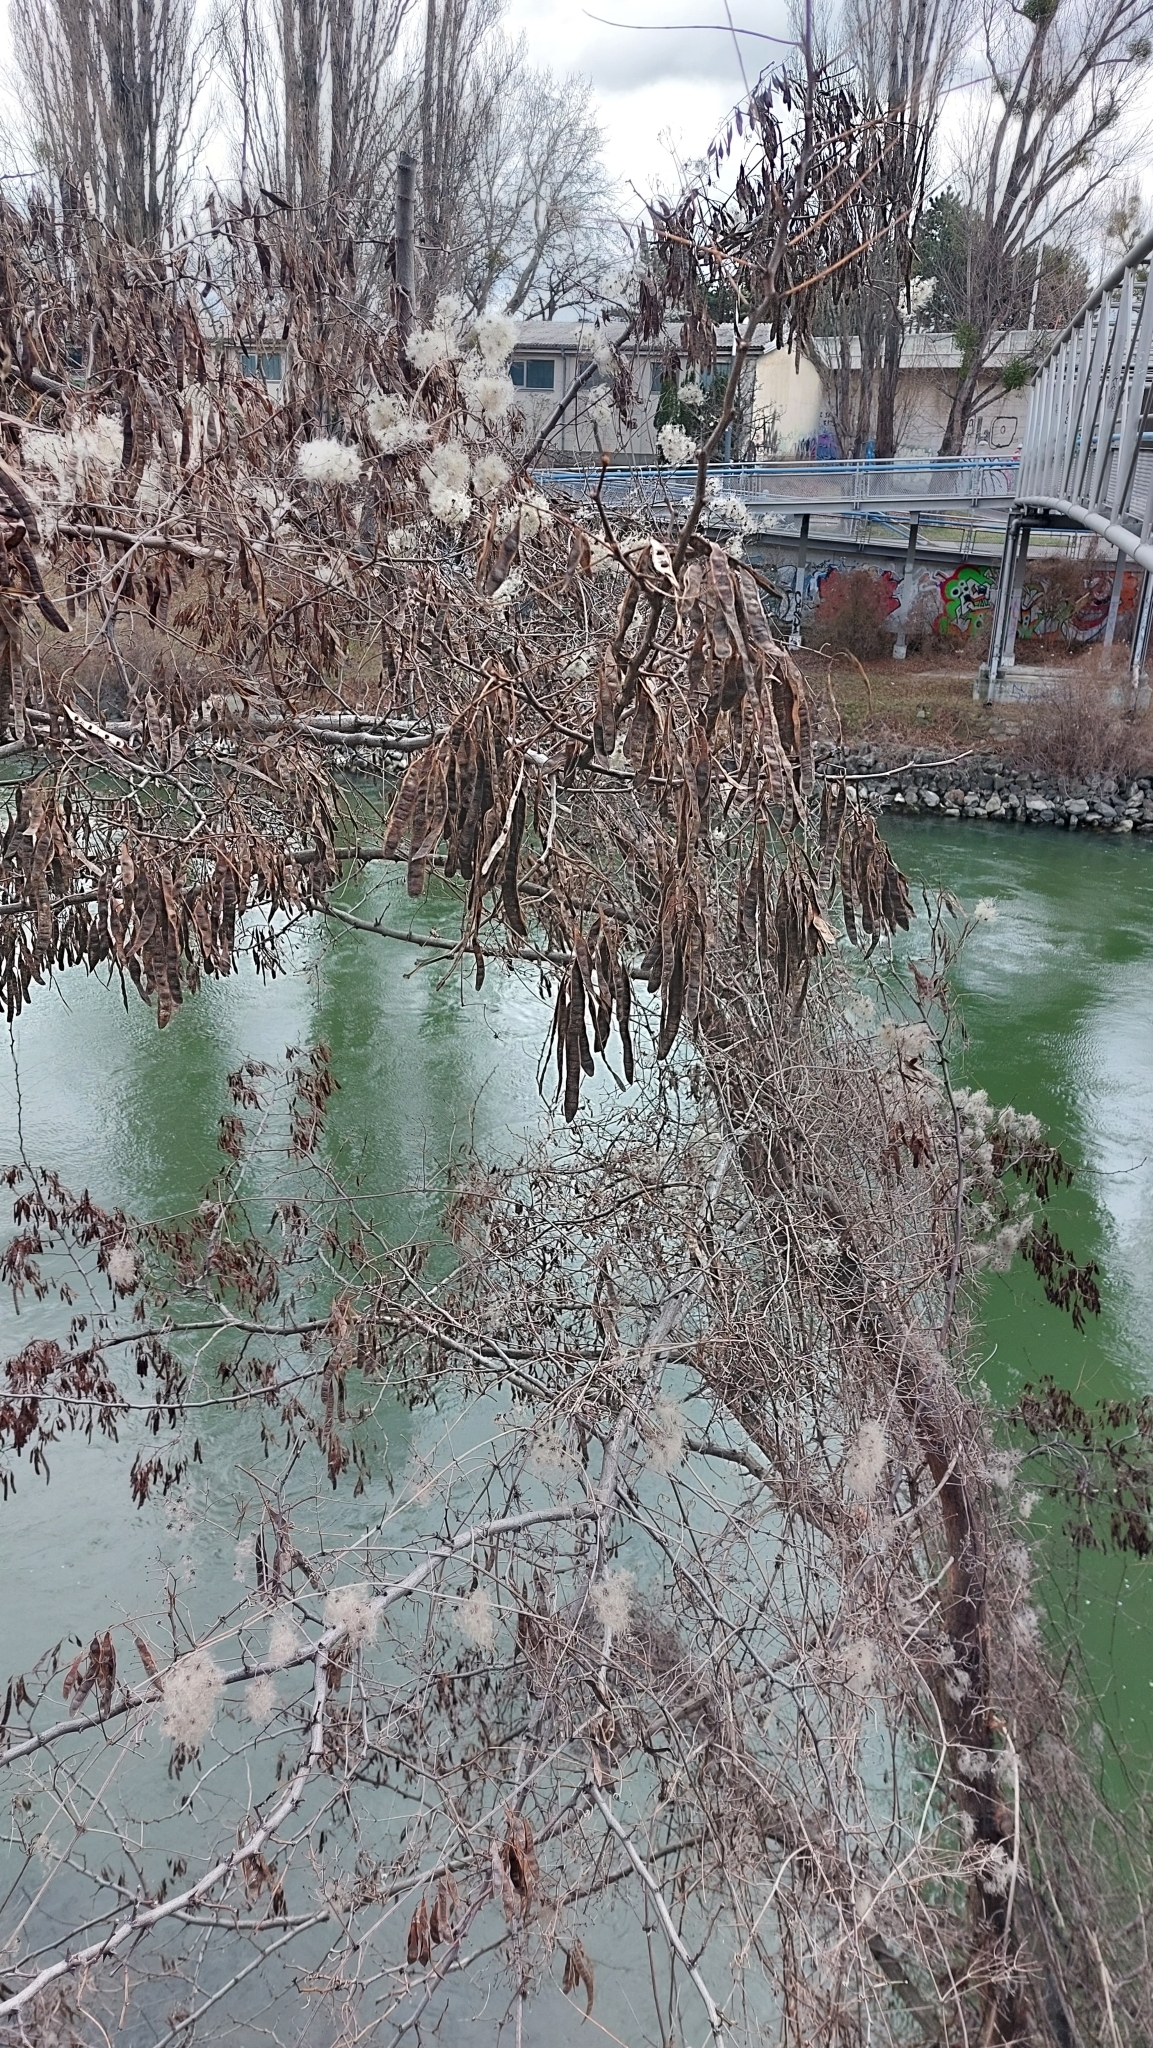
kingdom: Plantae
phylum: Tracheophyta
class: Magnoliopsida
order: Fabales
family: Fabaceae
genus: Robinia
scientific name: Robinia pseudoacacia
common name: Black locust
